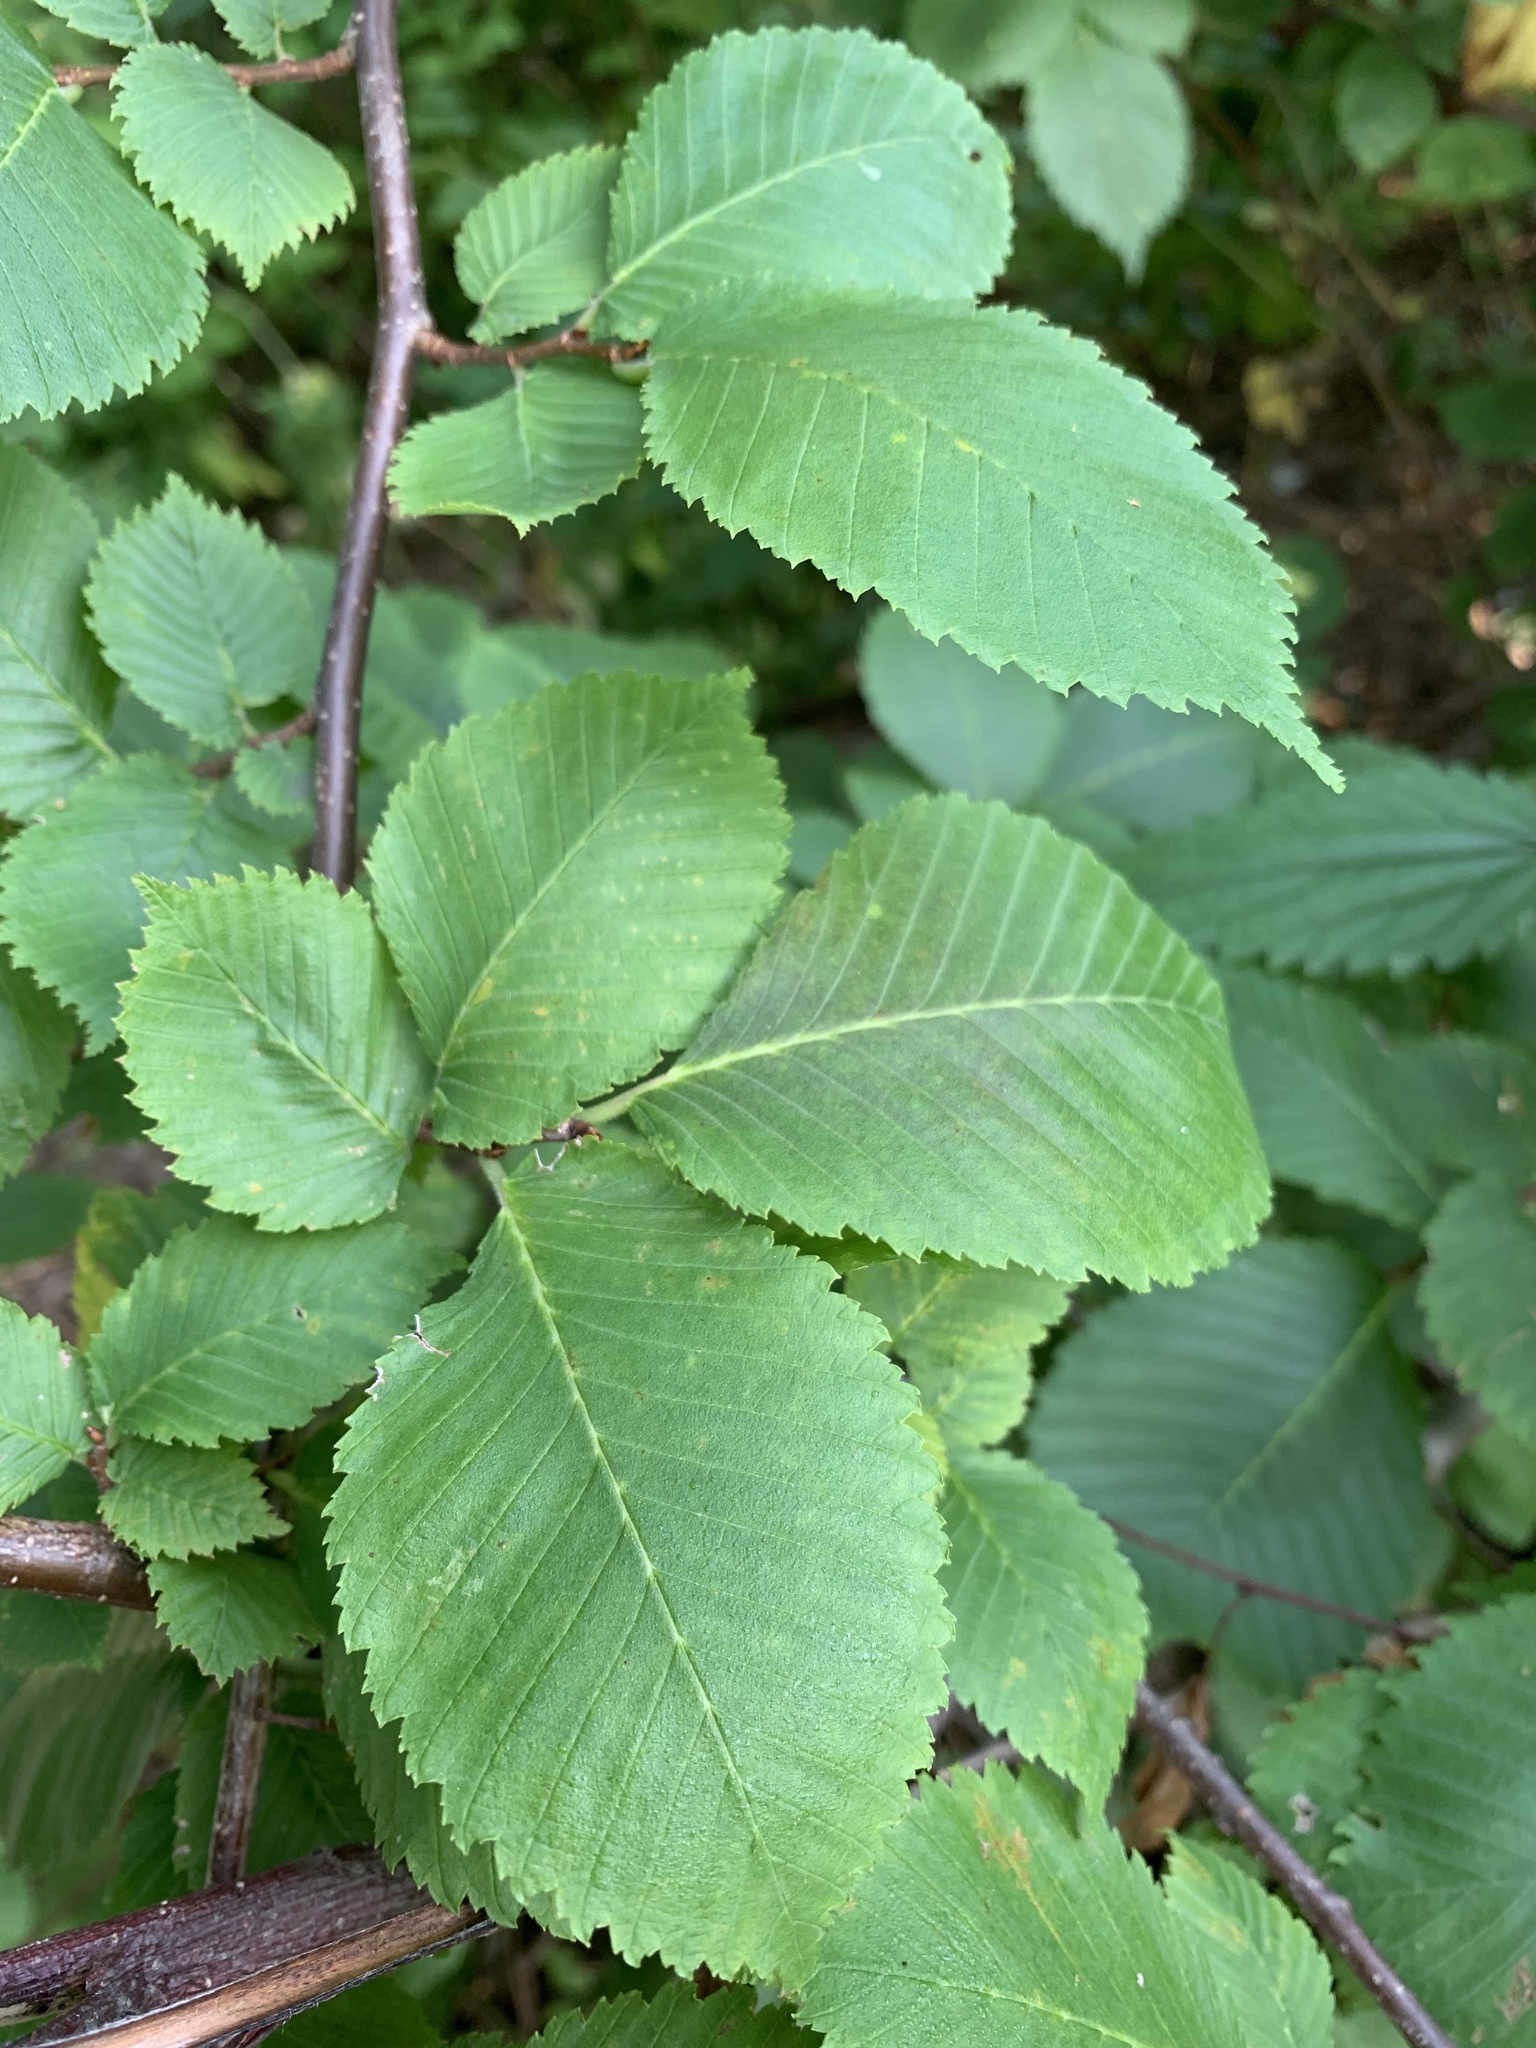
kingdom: Plantae
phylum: Tracheophyta
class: Magnoliopsida
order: Rosales
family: Ulmaceae
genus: Ulmus
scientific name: Ulmus laevis
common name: European white-elm
